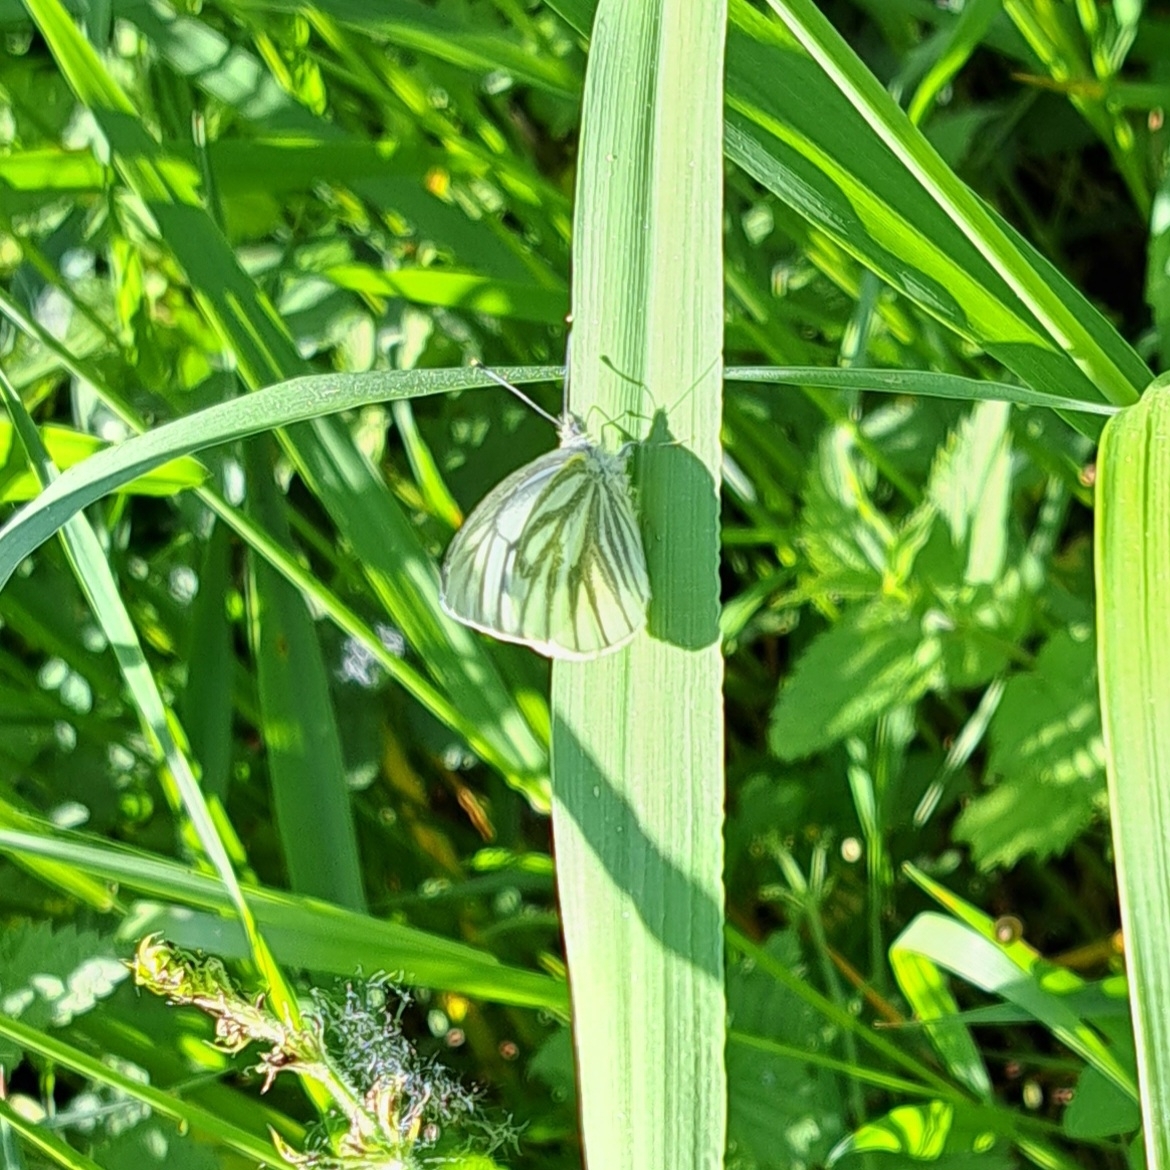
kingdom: Animalia
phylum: Arthropoda
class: Insecta
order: Lepidoptera
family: Pieridae
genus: Pieris
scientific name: Pieris napi
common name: Green-veined white
